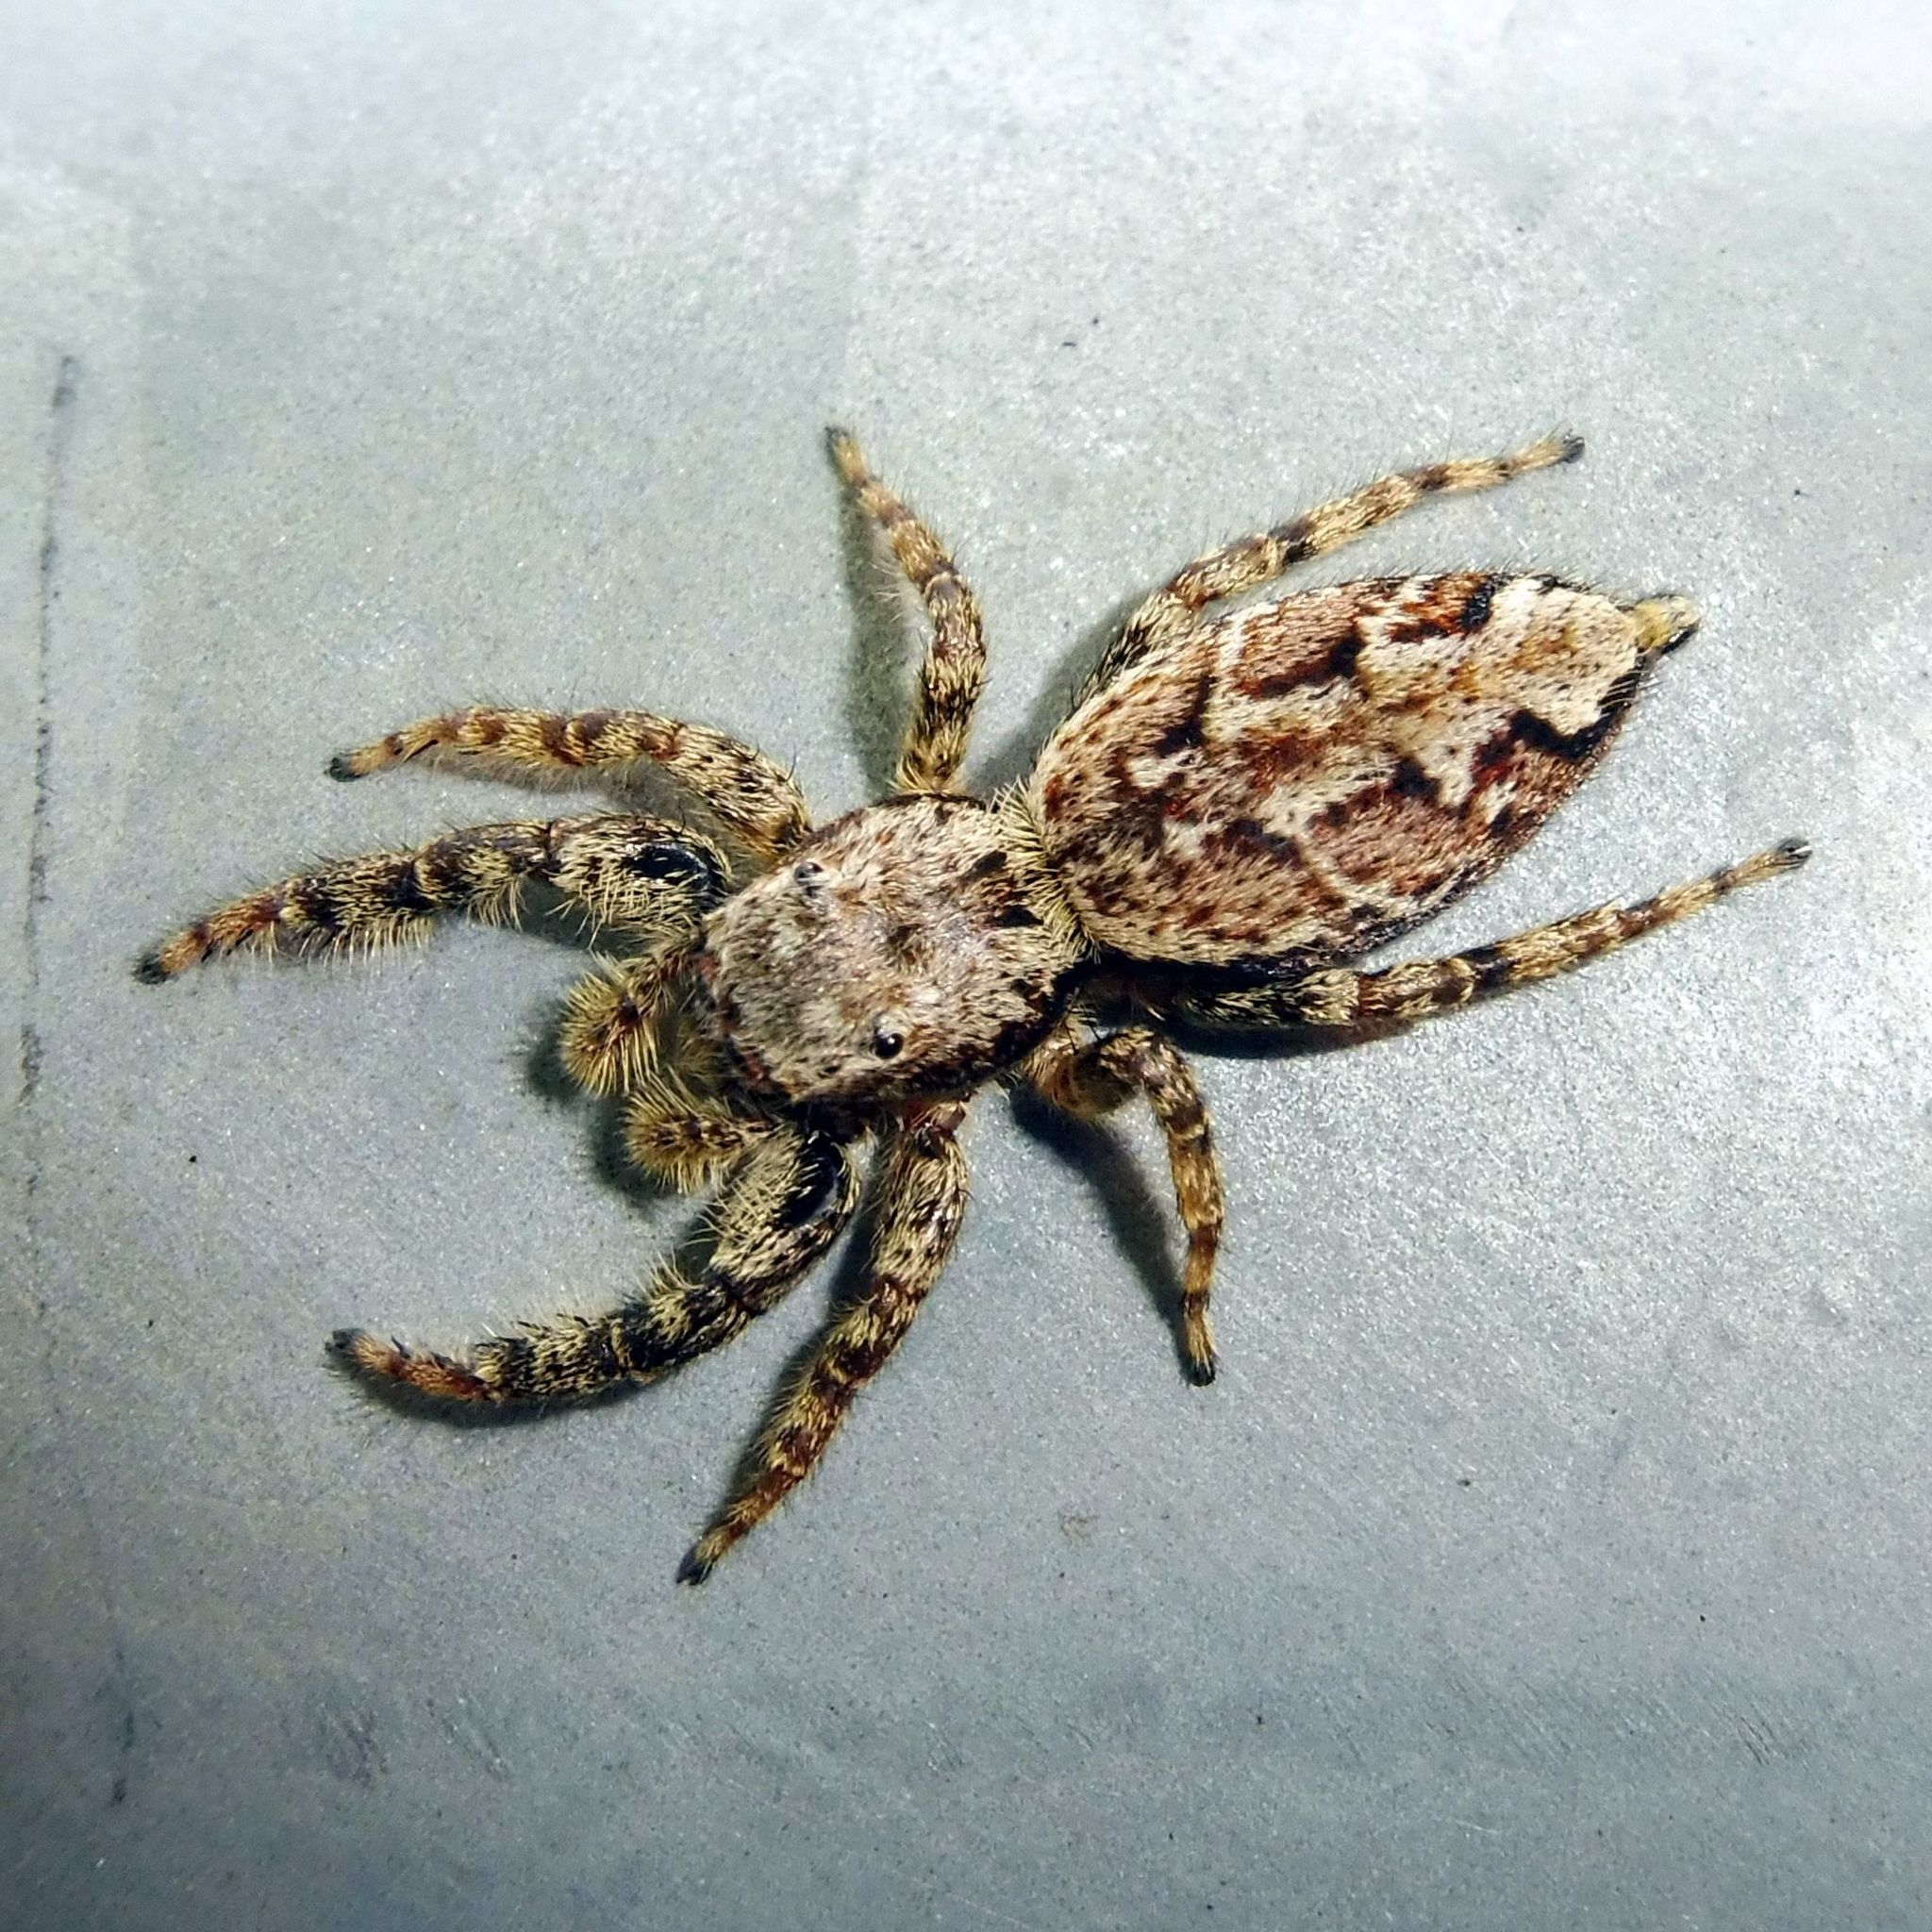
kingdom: Animalia
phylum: Arthropoda
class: Arachnida
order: Araneae
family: Salticidae
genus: Marpissa
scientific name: Marpissa muscosa
